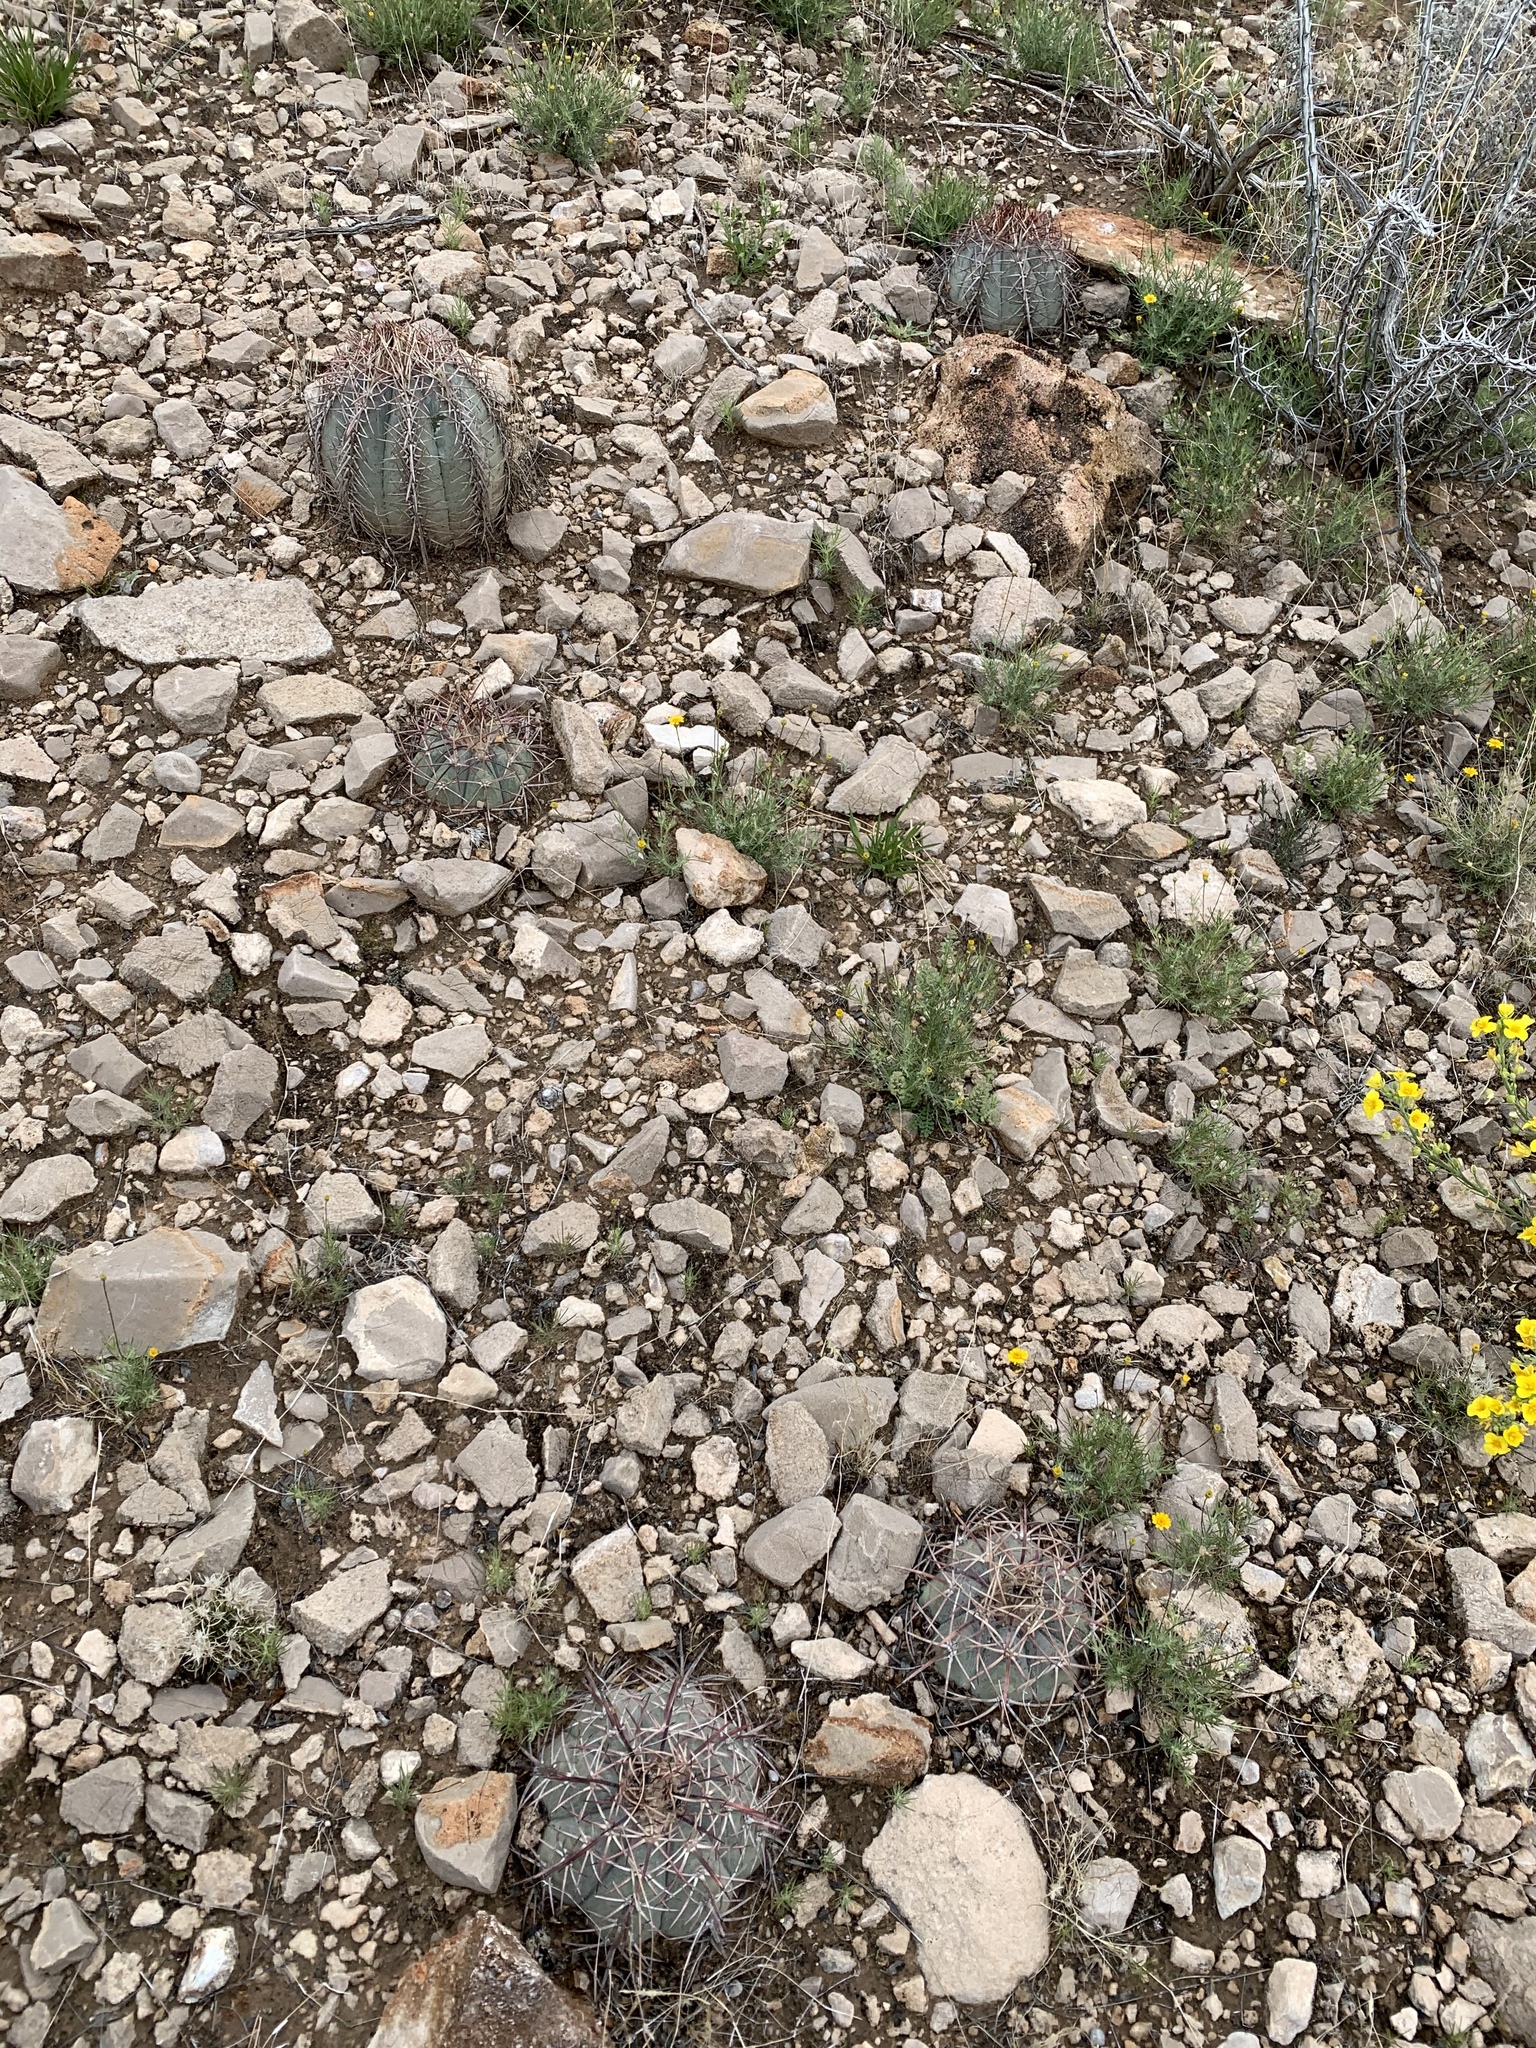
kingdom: Plantae
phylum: Tracheophyta
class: Magnoliopsida
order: Caryophyllales
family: Cactaceae
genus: Echinocactus
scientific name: Echinocactus horizonthalonius
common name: Devilshead
